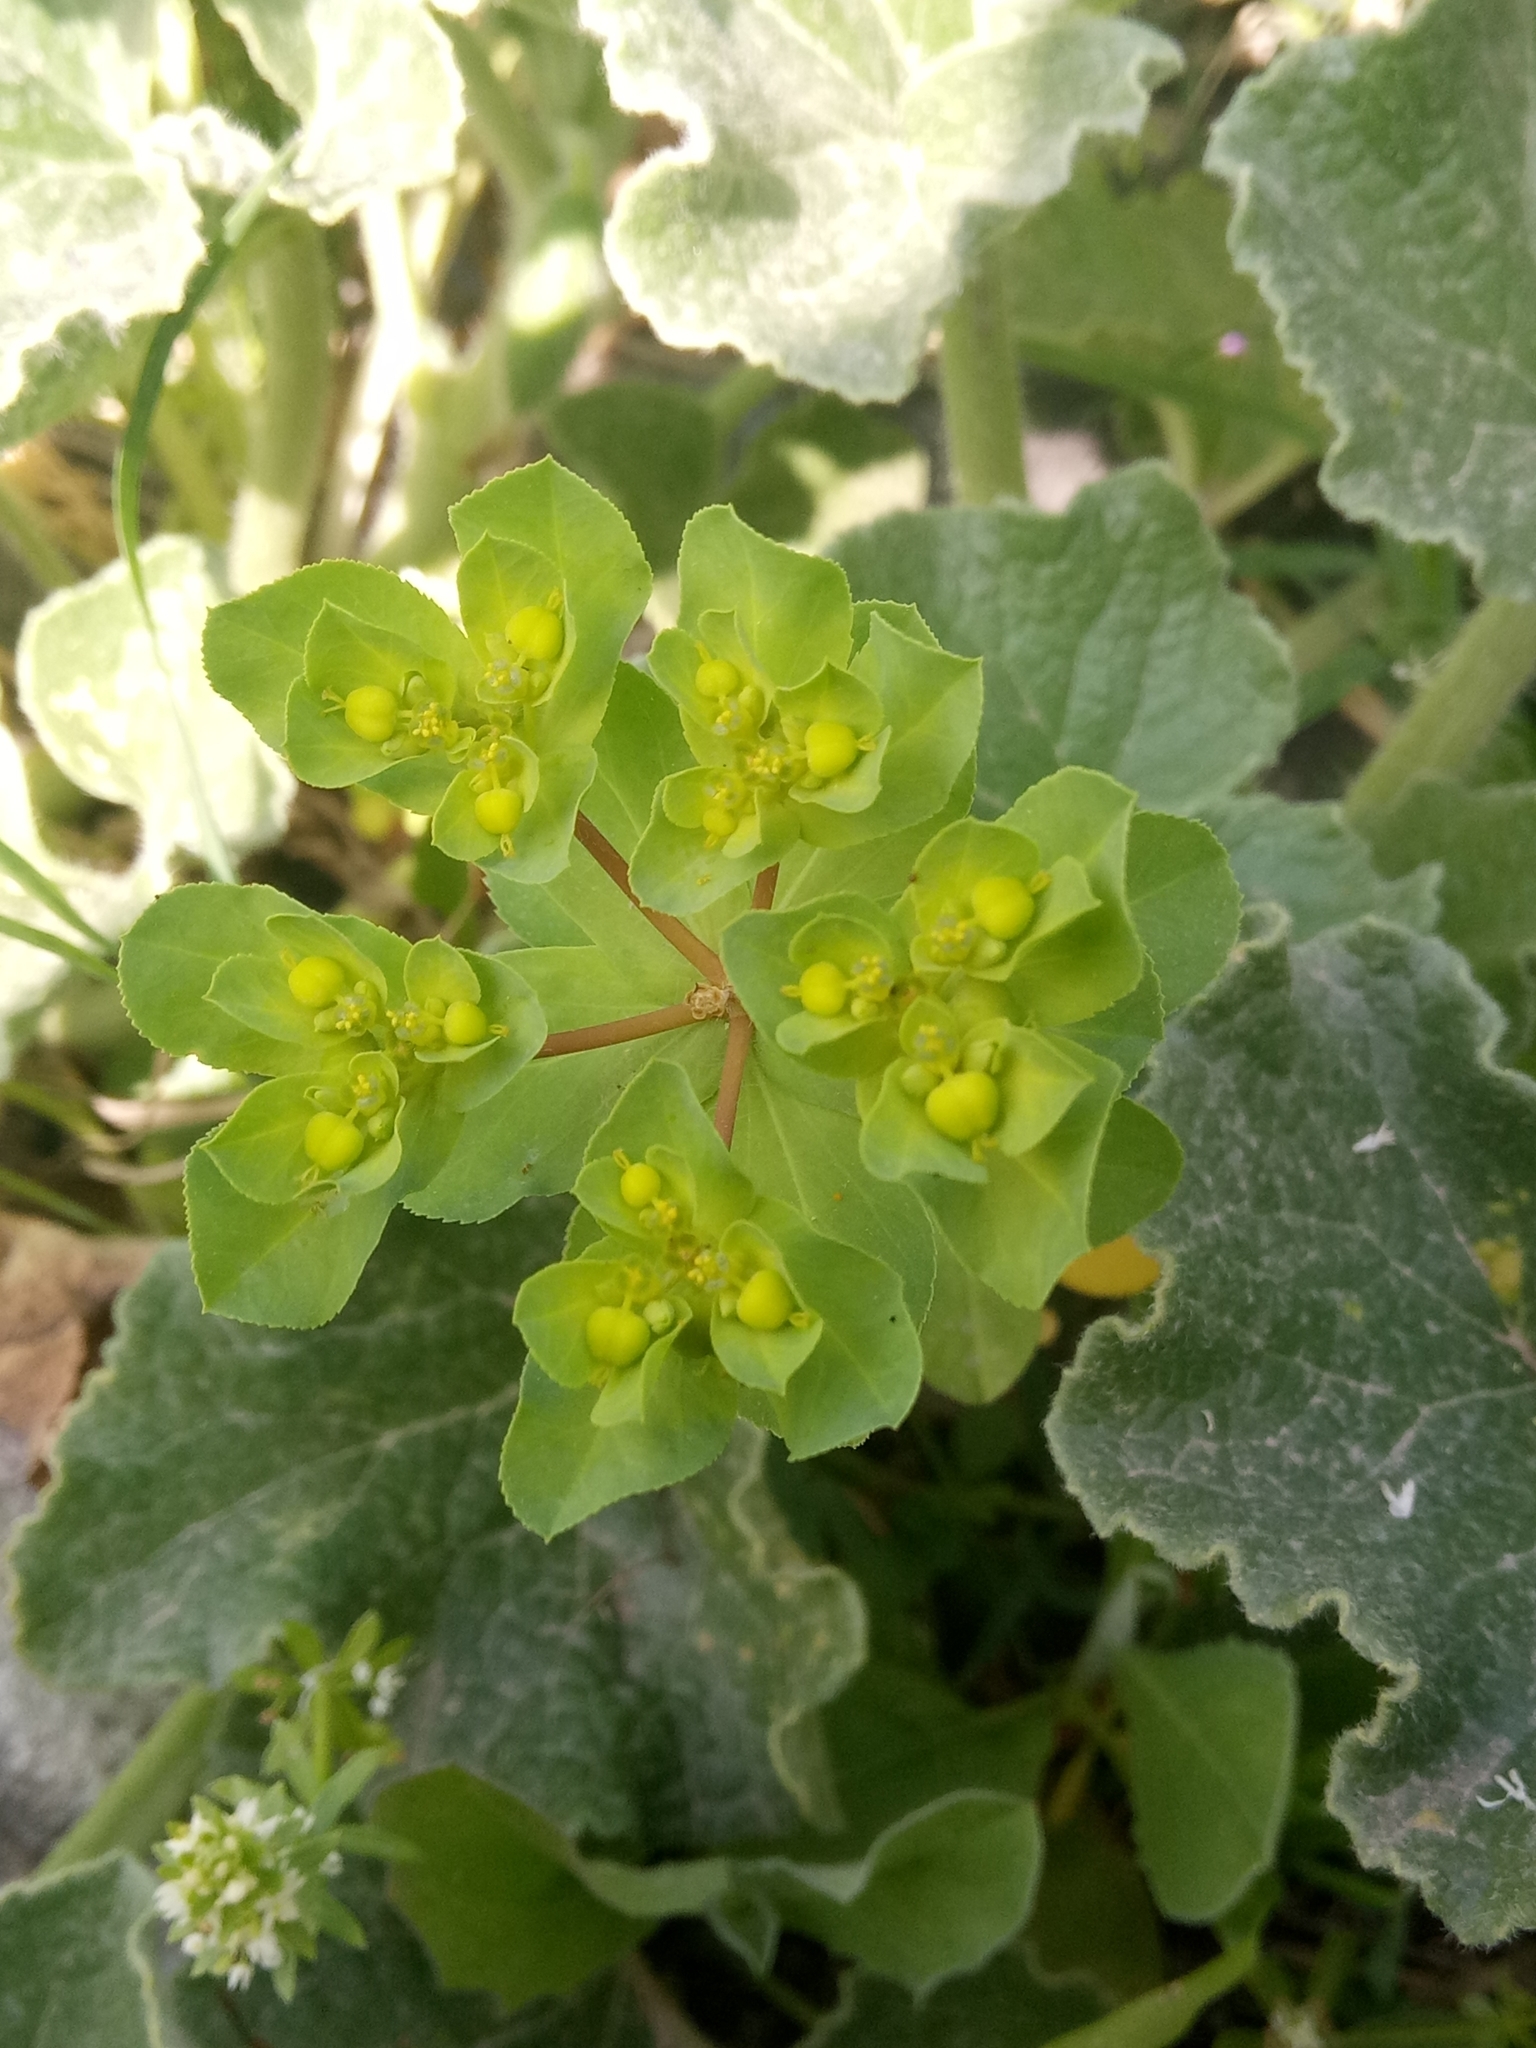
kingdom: Plantae
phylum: Tracheophyta
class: Magnoliopsida
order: Malpighiales
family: Euphorbiaceae
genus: Euphorbia
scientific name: Euphorbia helioscopia
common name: Sun spurge
